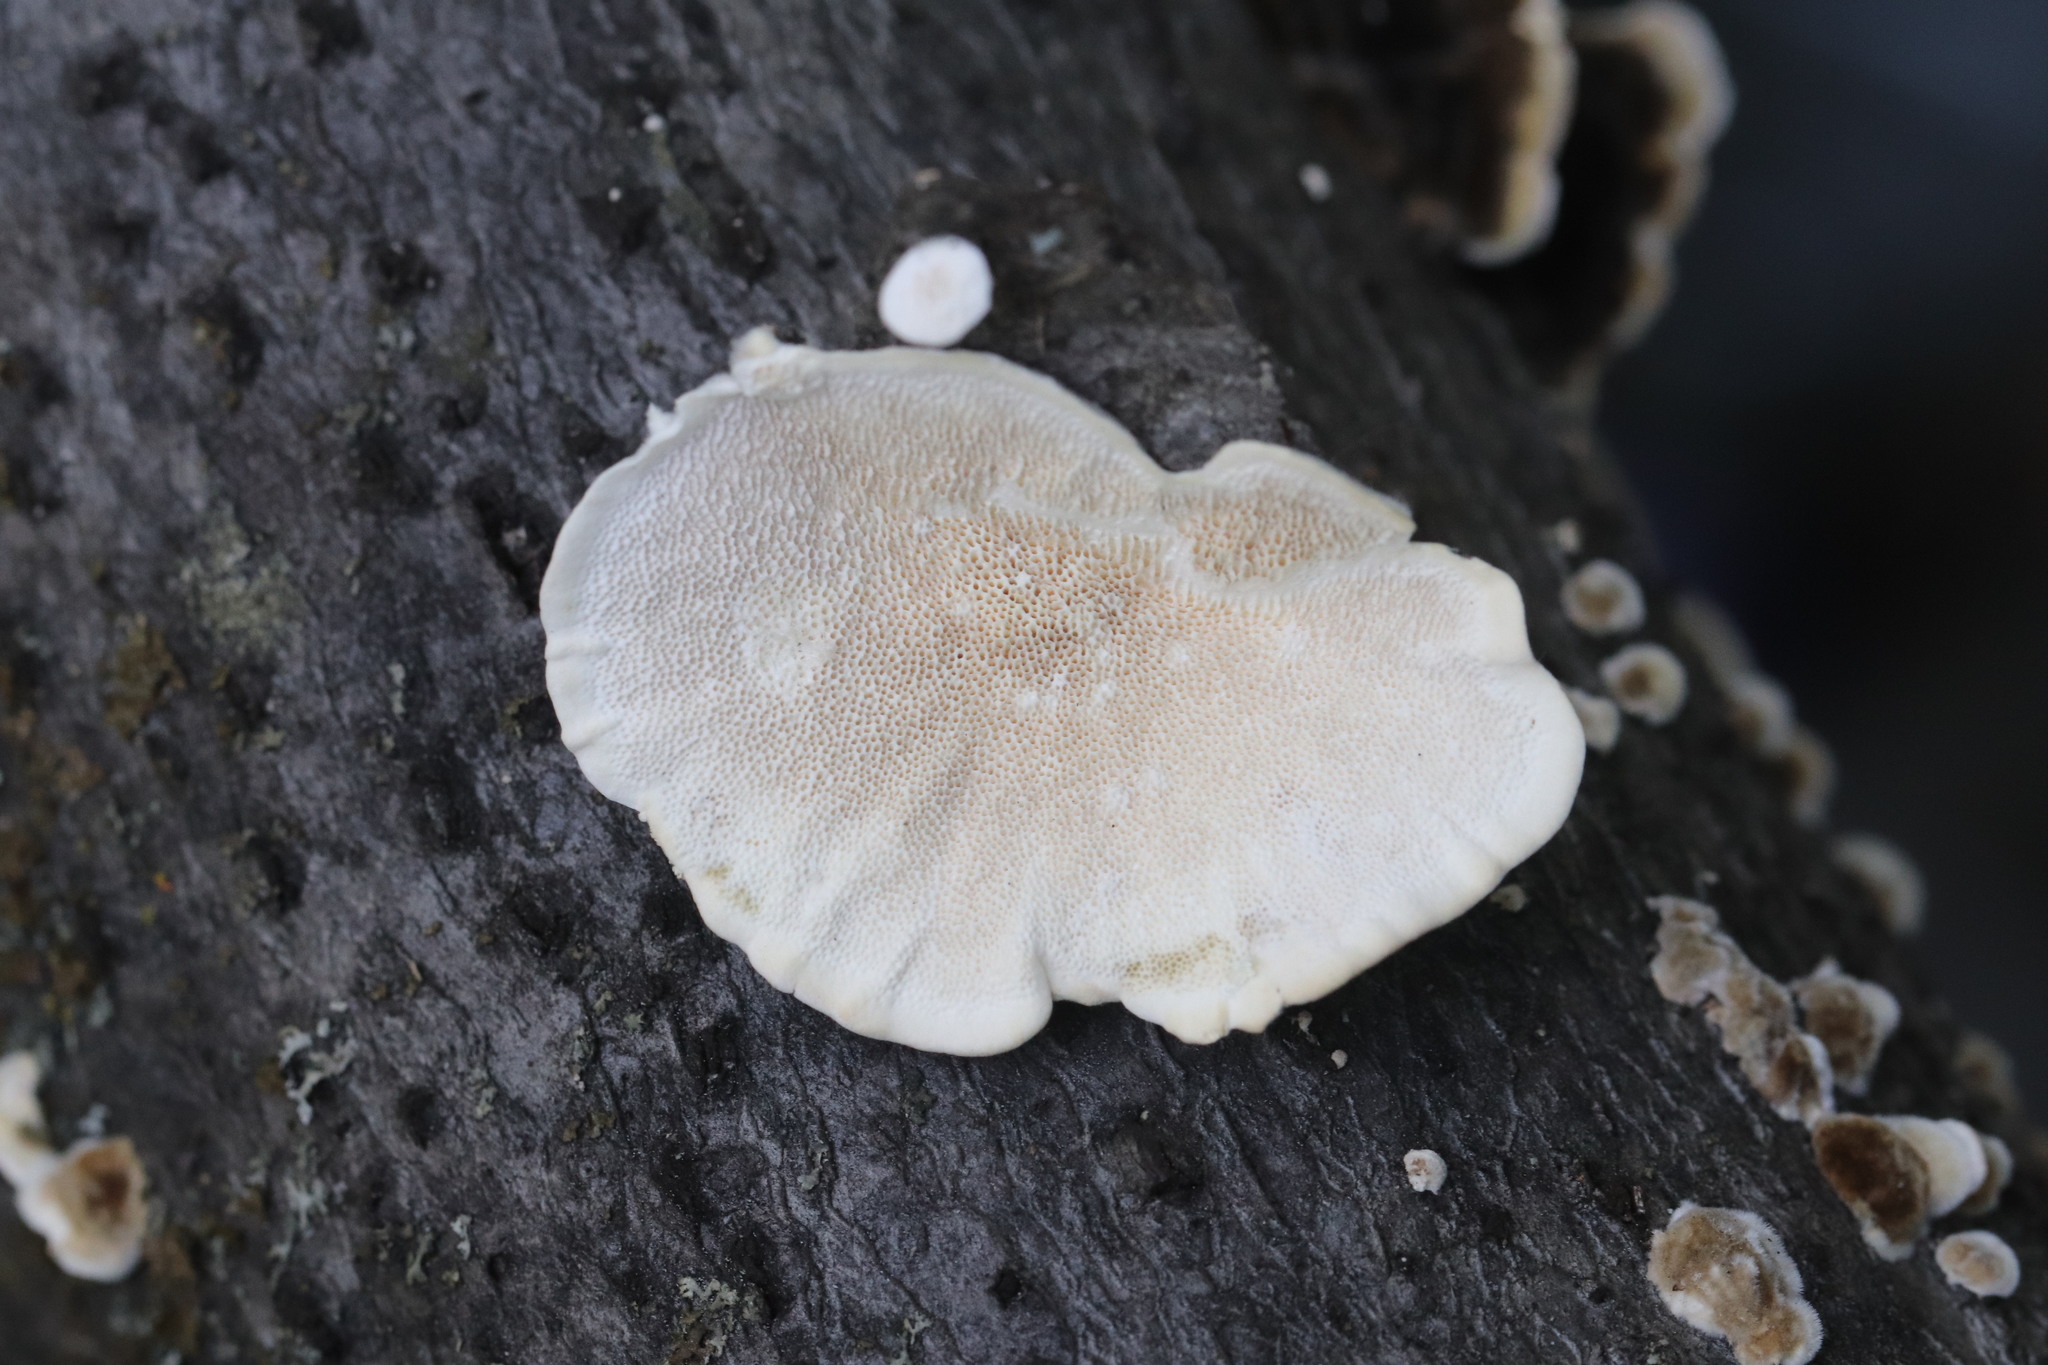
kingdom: Fungi
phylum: Basidiomycota
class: Agaricomycetes
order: Polyporales
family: Polyporaceae
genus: Trametes
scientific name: Trametes versicolor
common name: Turkeytail
